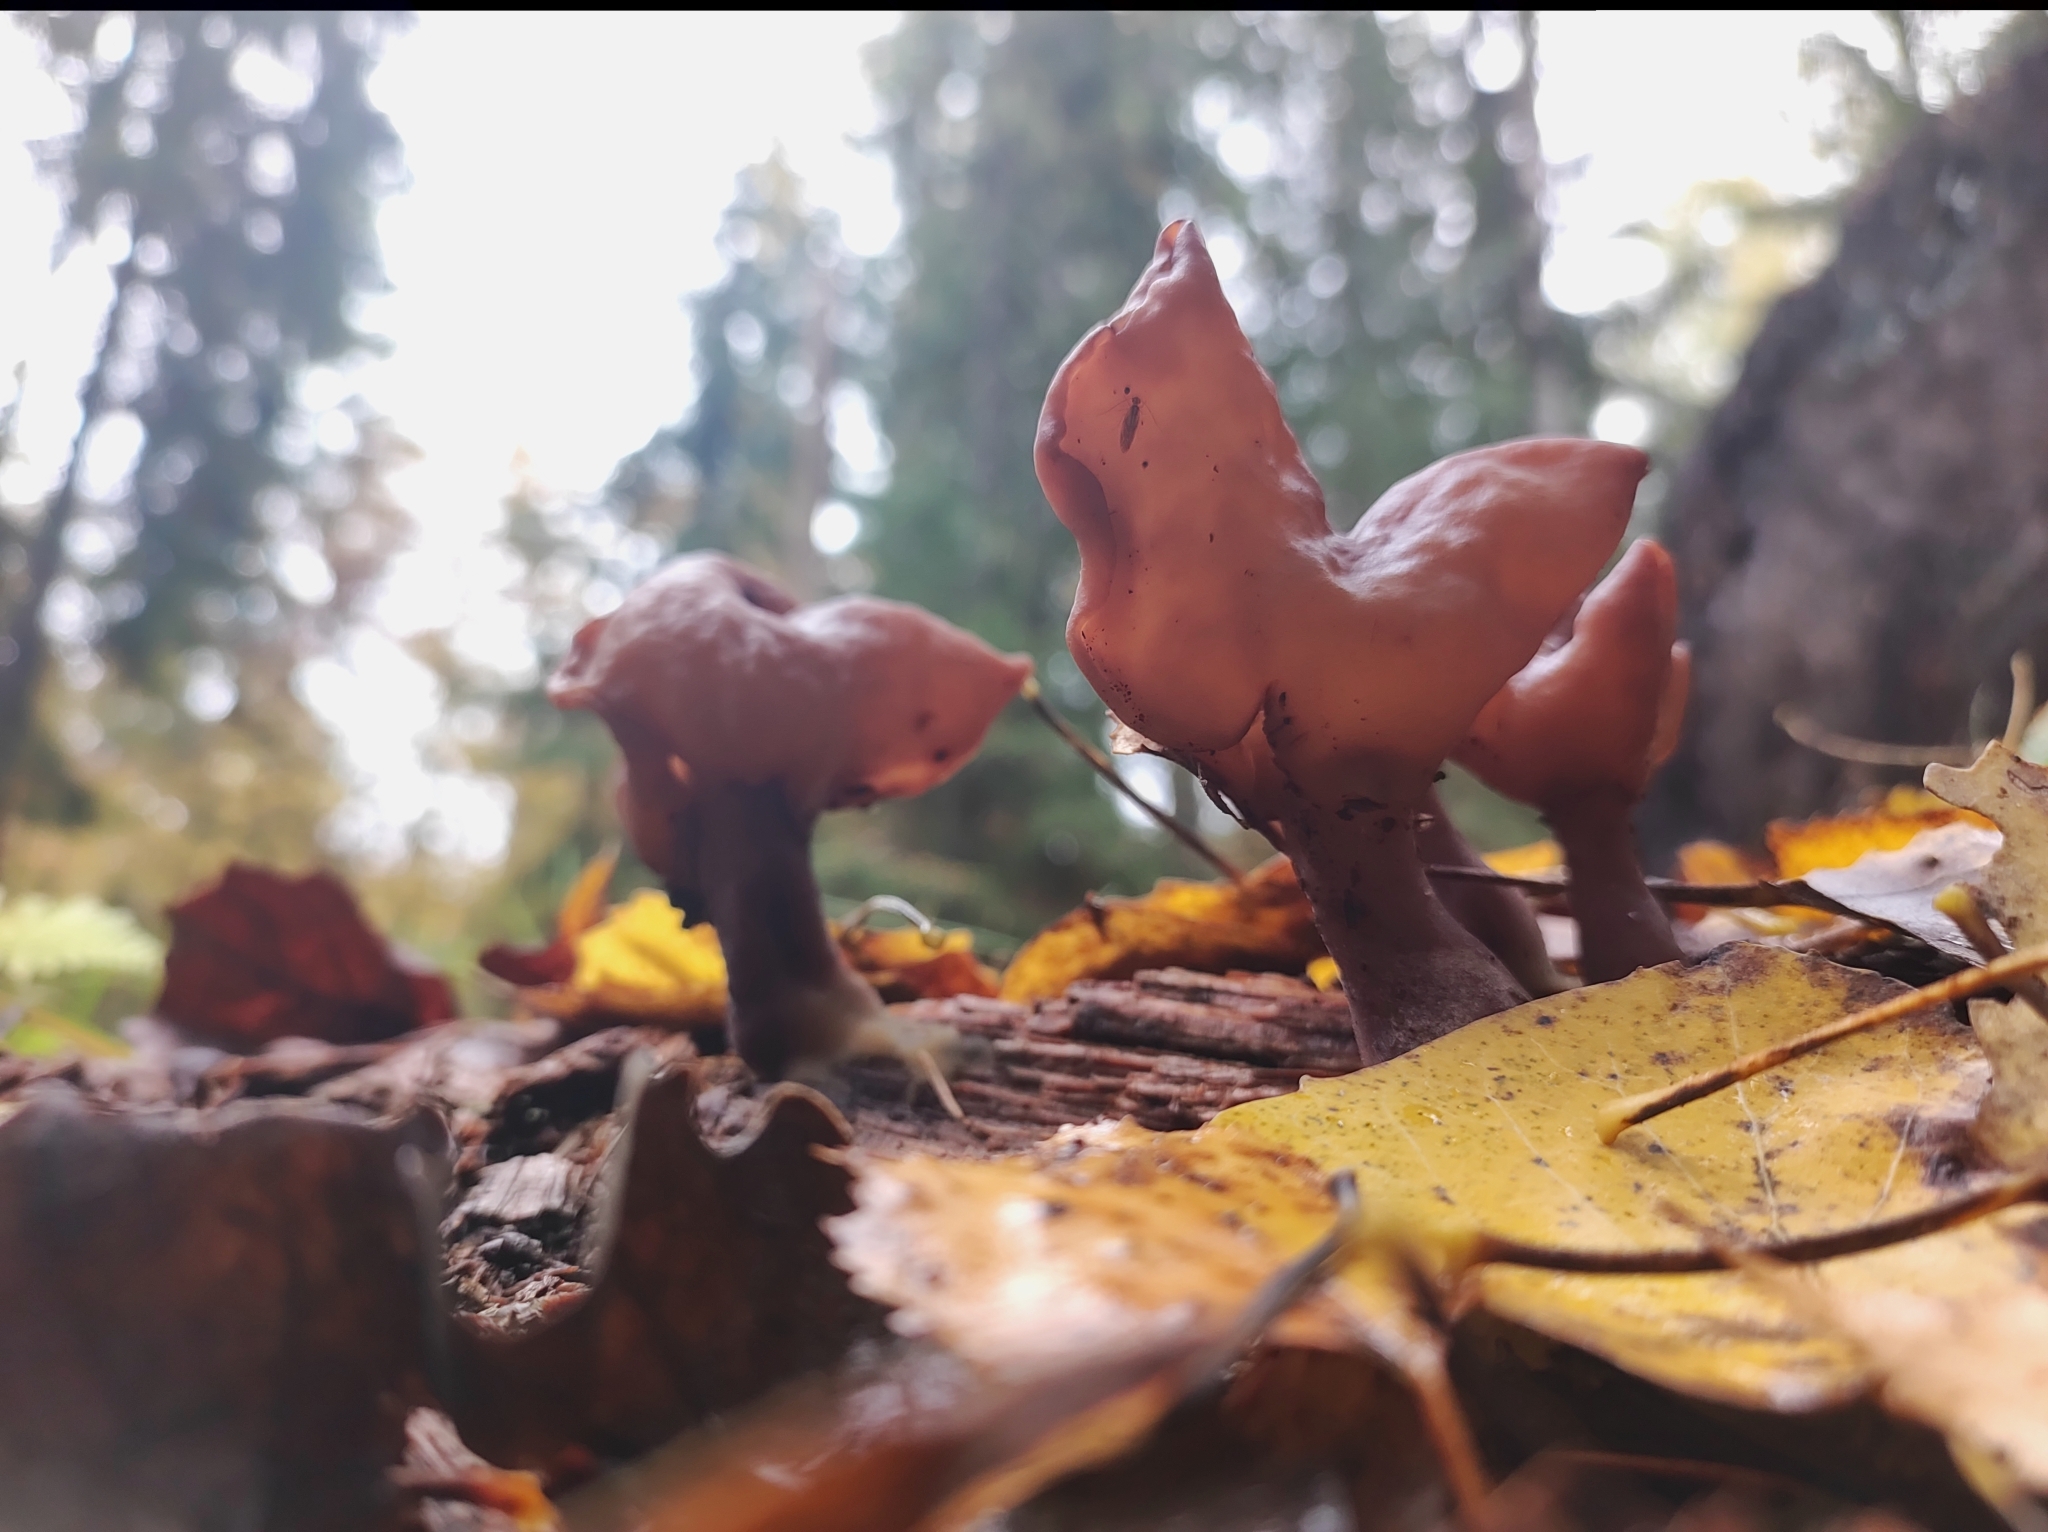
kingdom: Fungi
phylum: Ascomycota
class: Pezizomycetes
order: Pezizales
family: Discinaceae
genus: Gyromitra
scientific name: Gyromitra infula
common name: Pouched false morel
